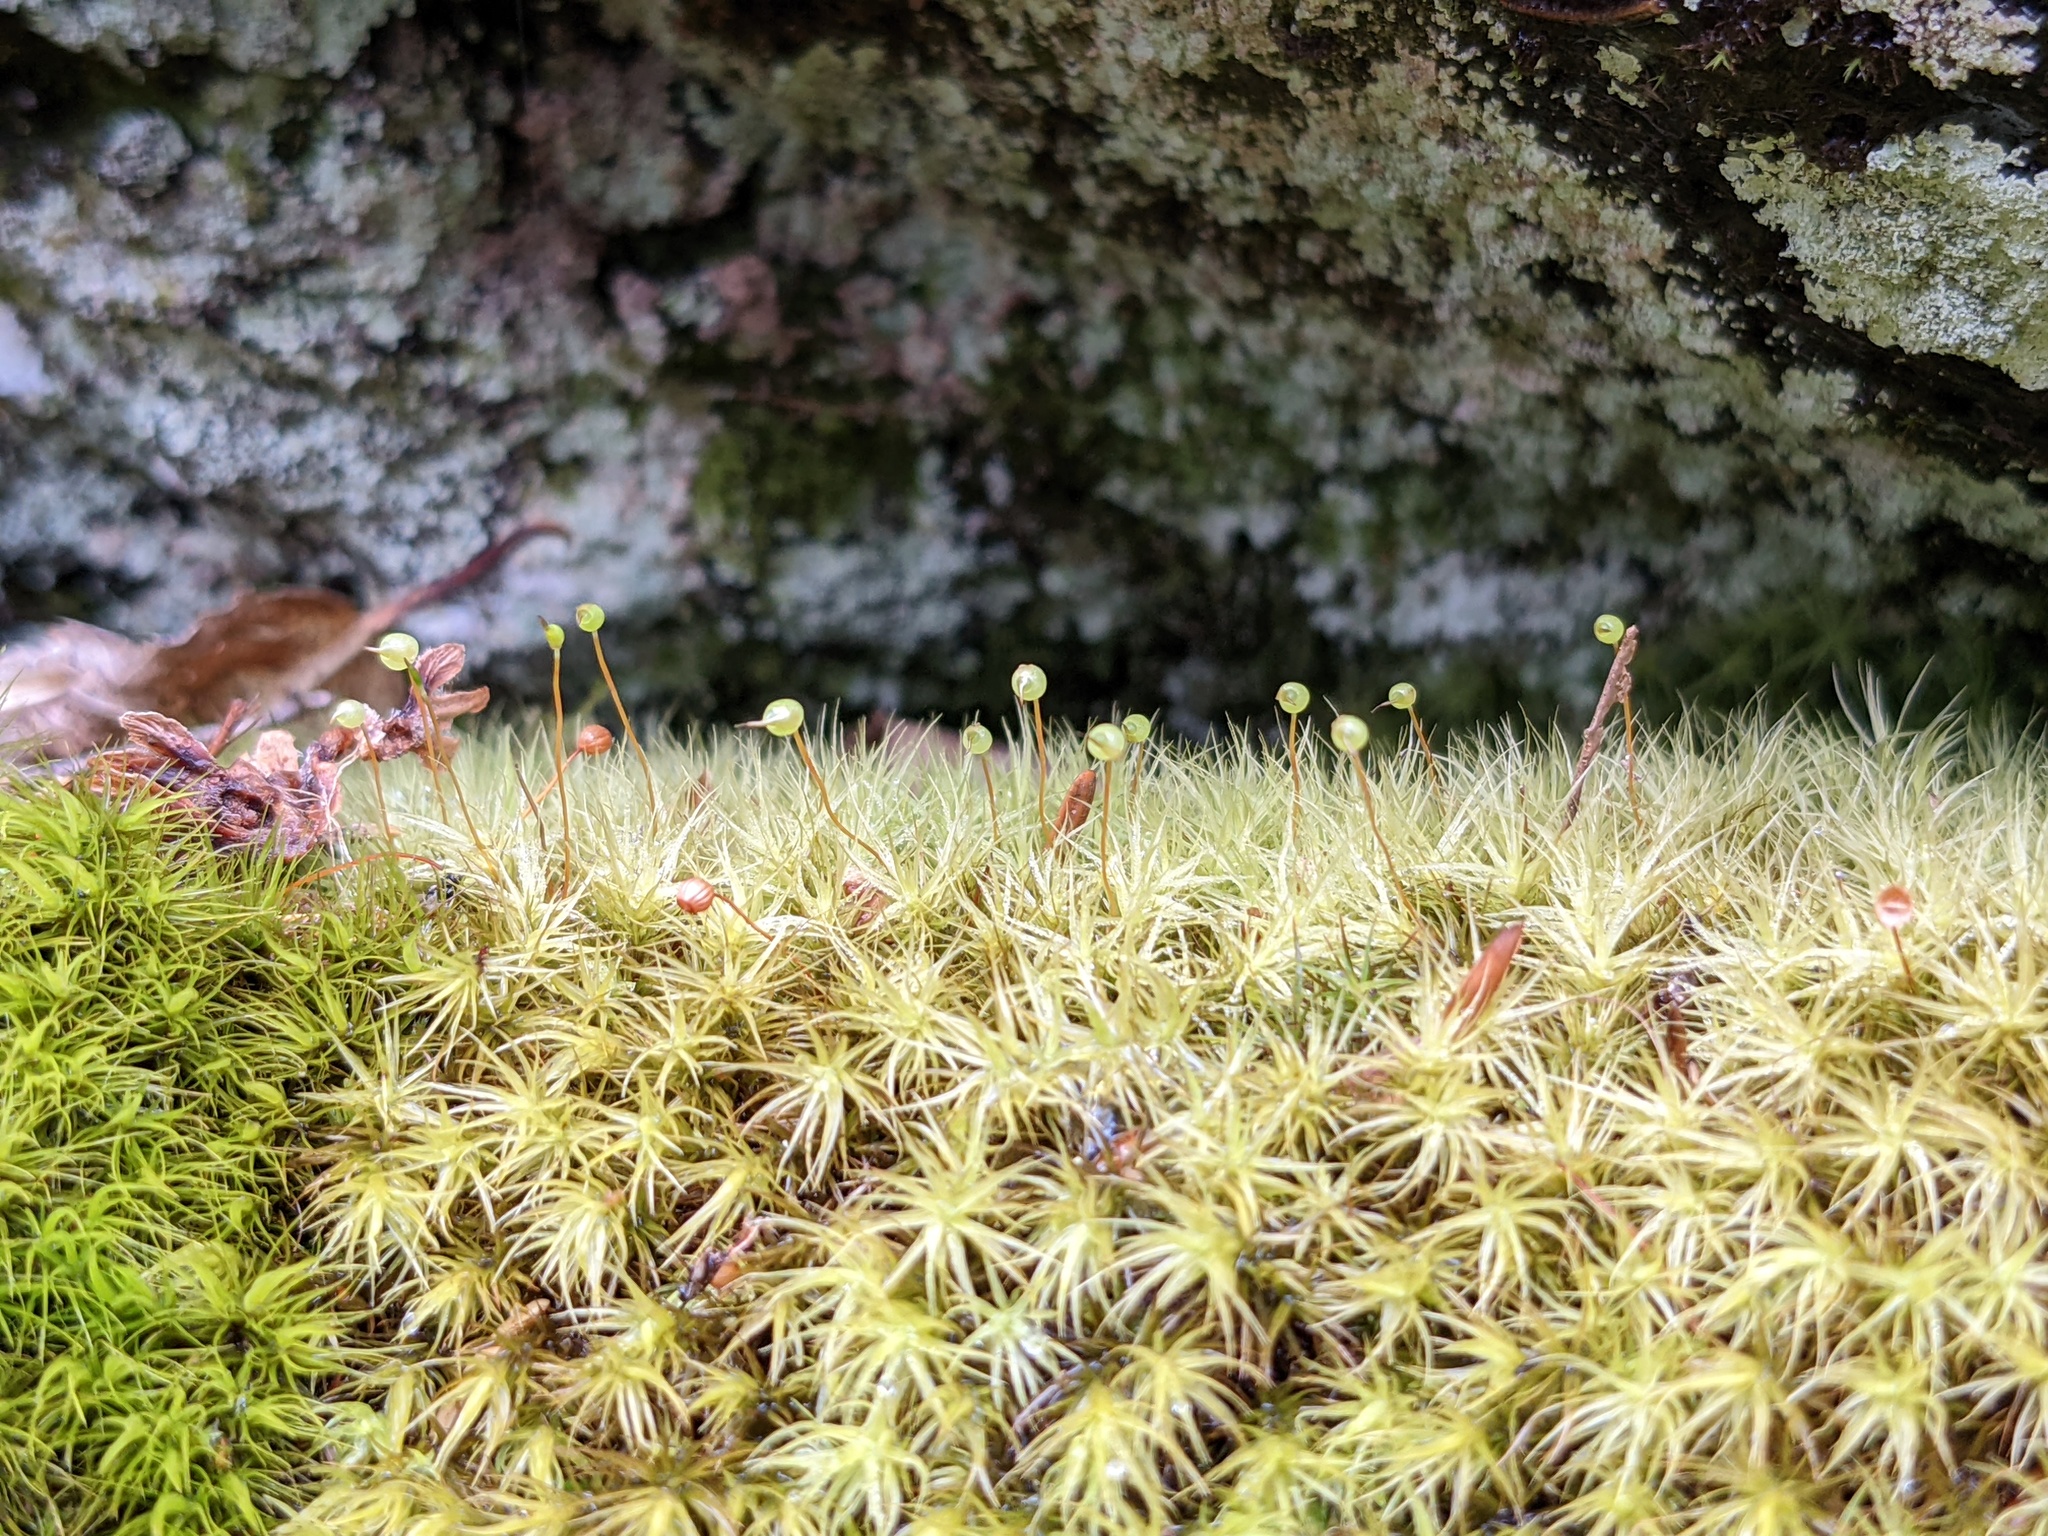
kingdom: Plantae
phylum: Bryophyta
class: Bryopsida
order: Bartramiales
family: Bartramiaceae
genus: Bartramia
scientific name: Bartramia ithyphylla
